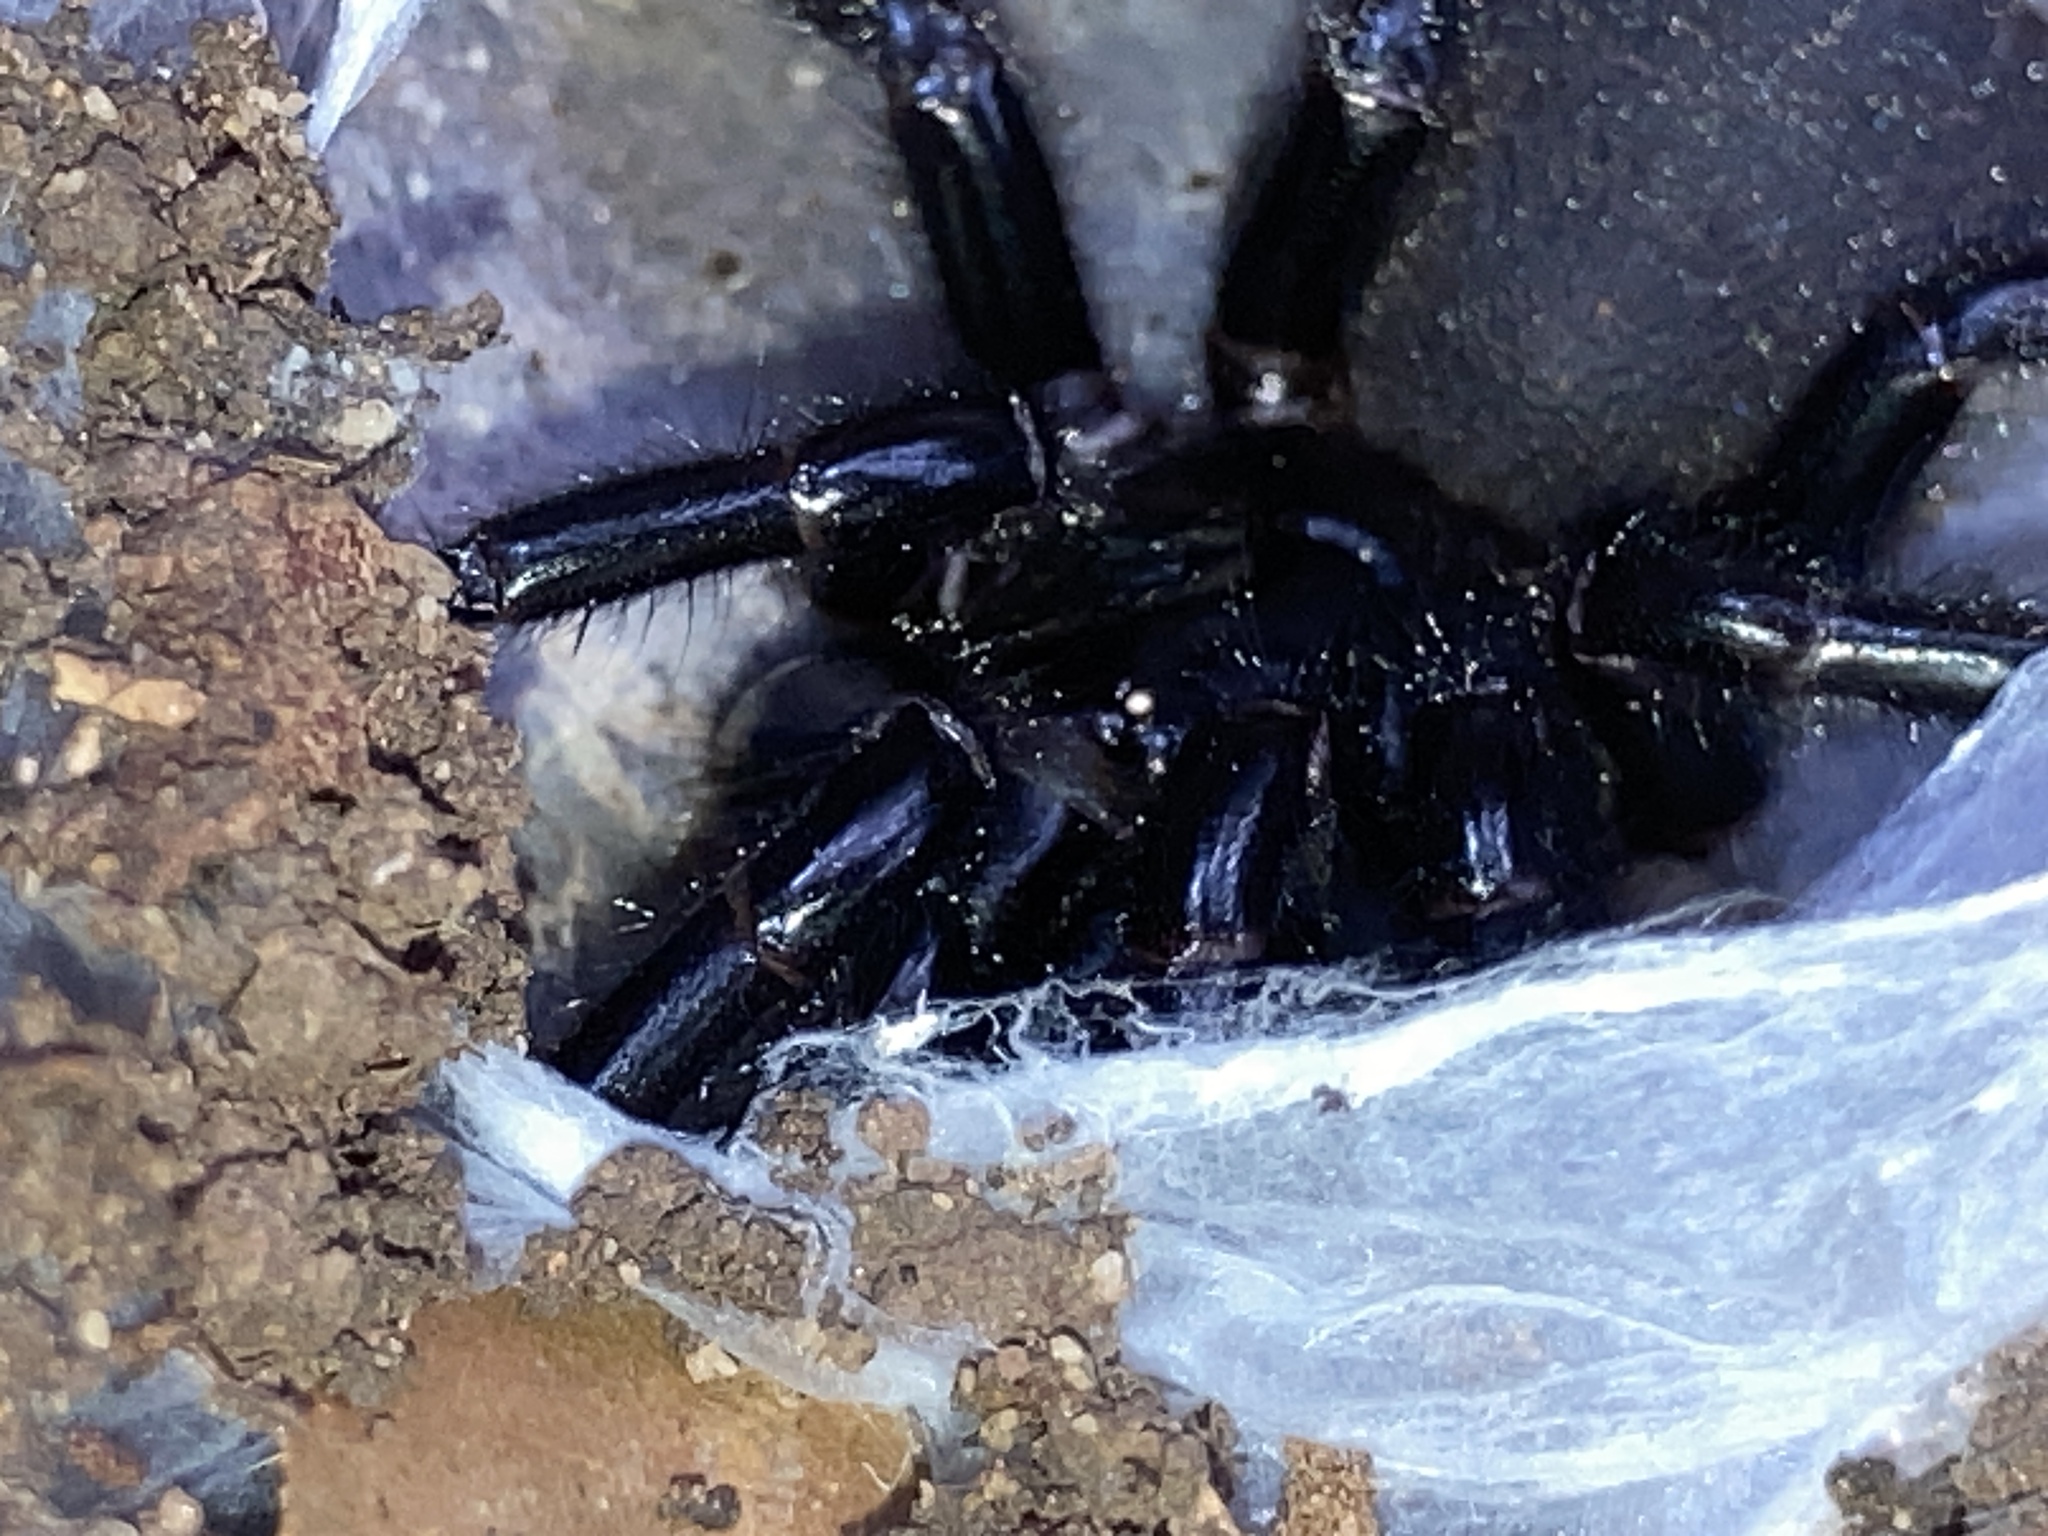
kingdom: Animalia
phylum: Arthropoda
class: Arachnida
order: Araneae
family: Atracidae
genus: Atrax
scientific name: Atrax robustus
